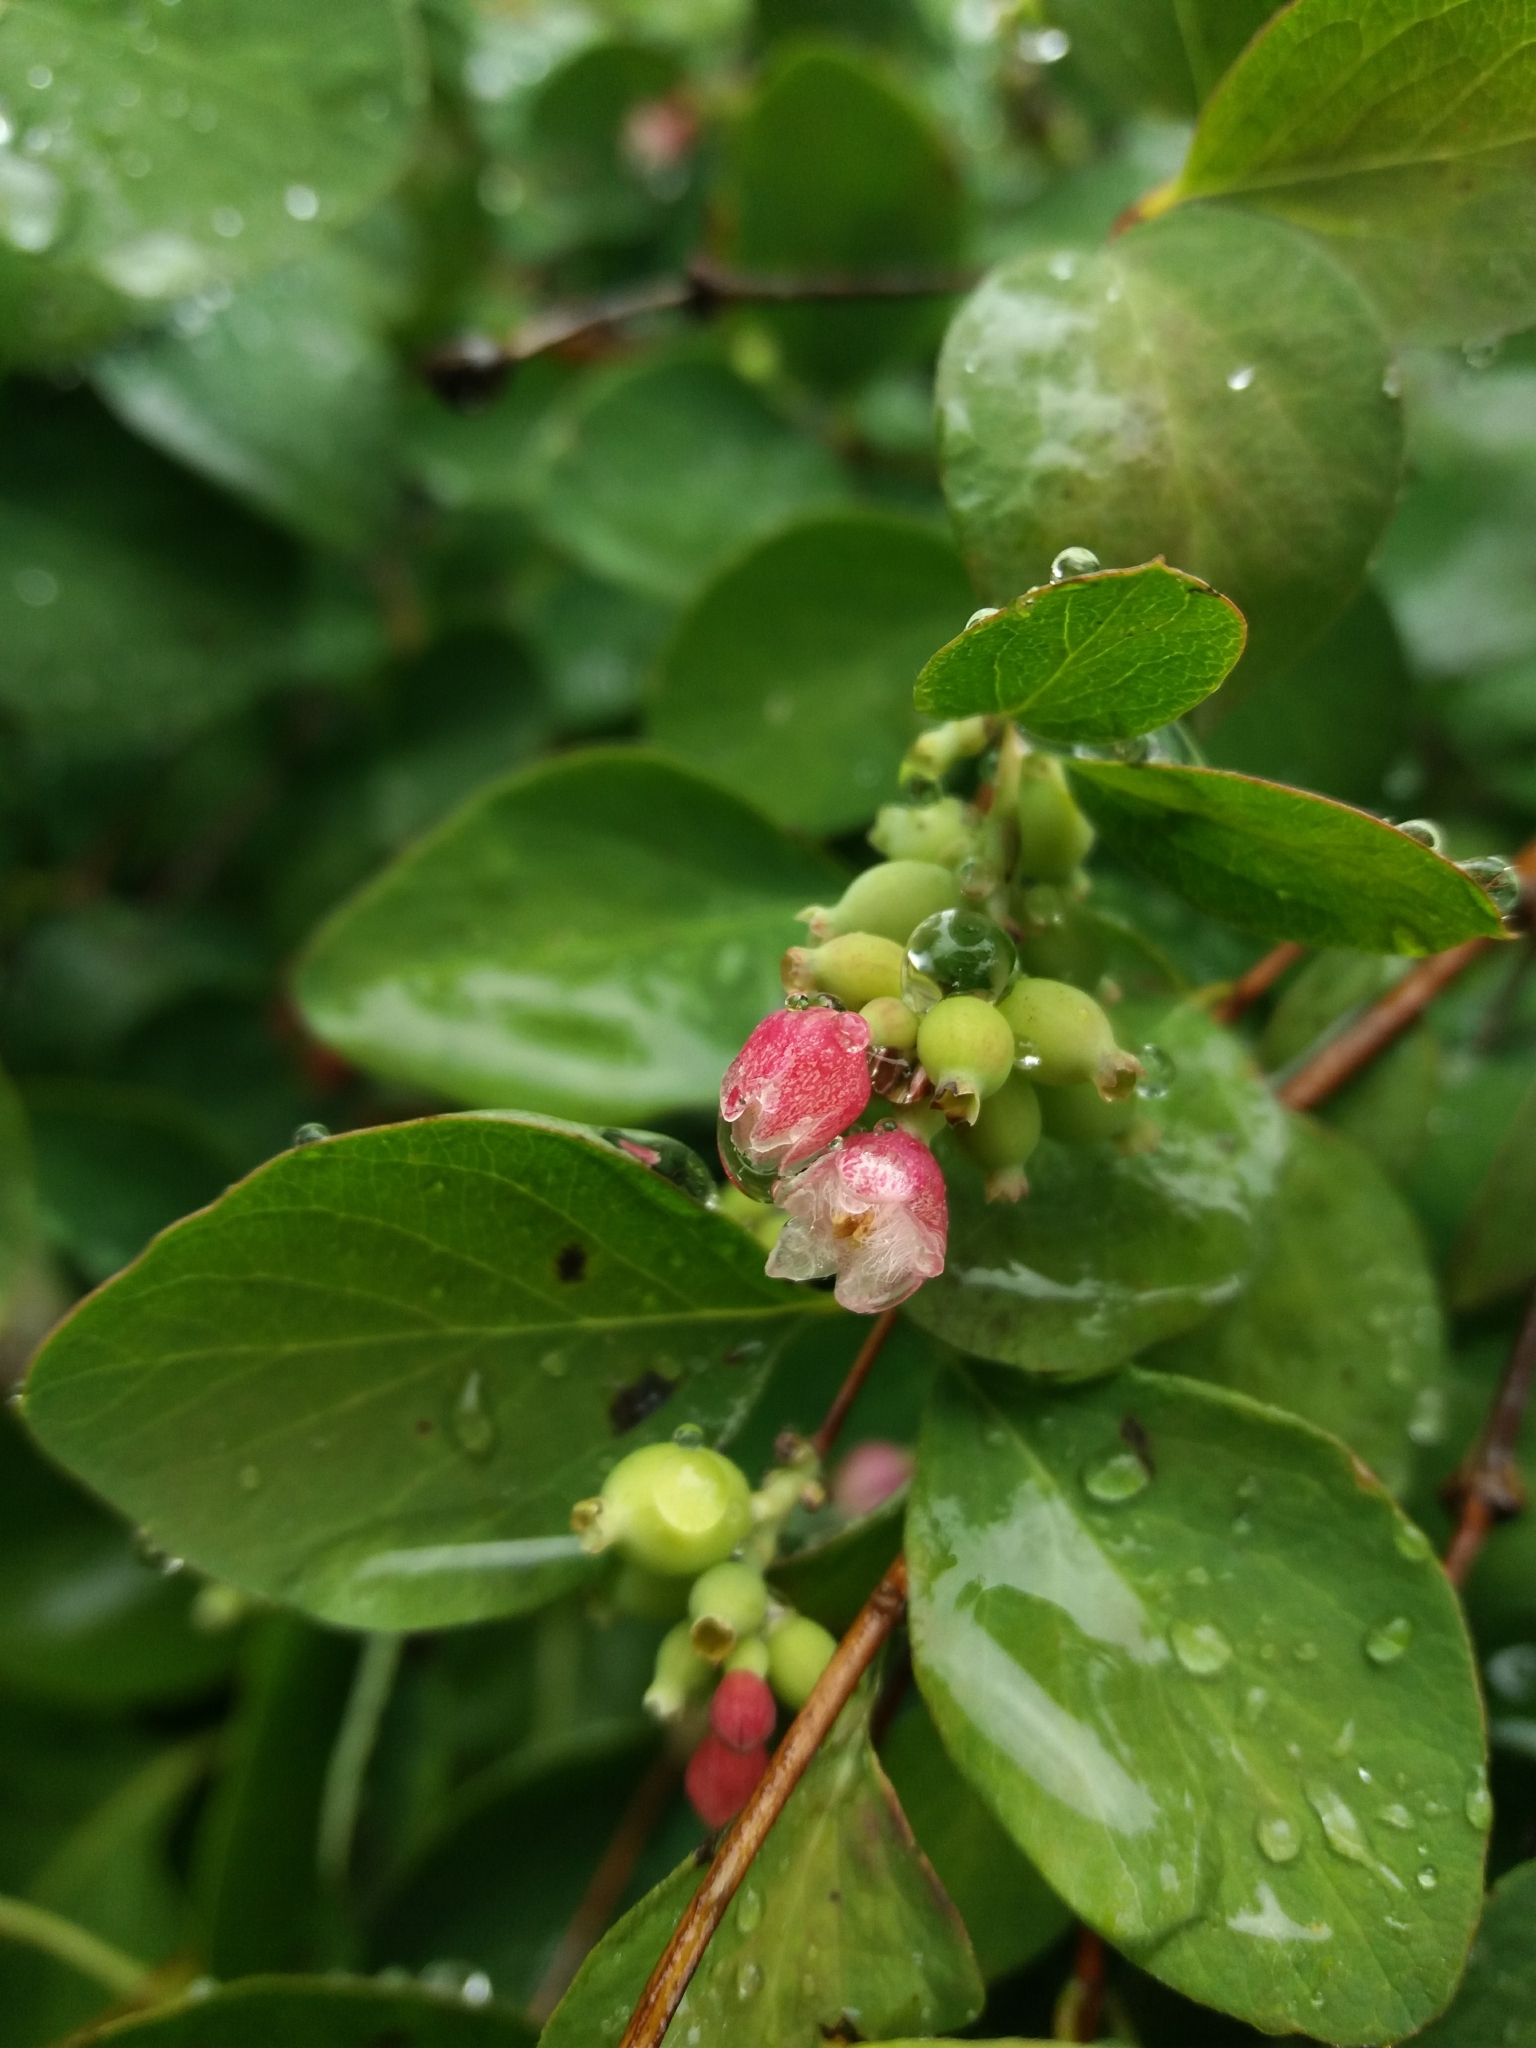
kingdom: Plantae
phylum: Tracheophyta
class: Magnoliopsida
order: Dipsacales
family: Caprifoliaceae
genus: Symphoricarpos
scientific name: Symphoricarpos albus
